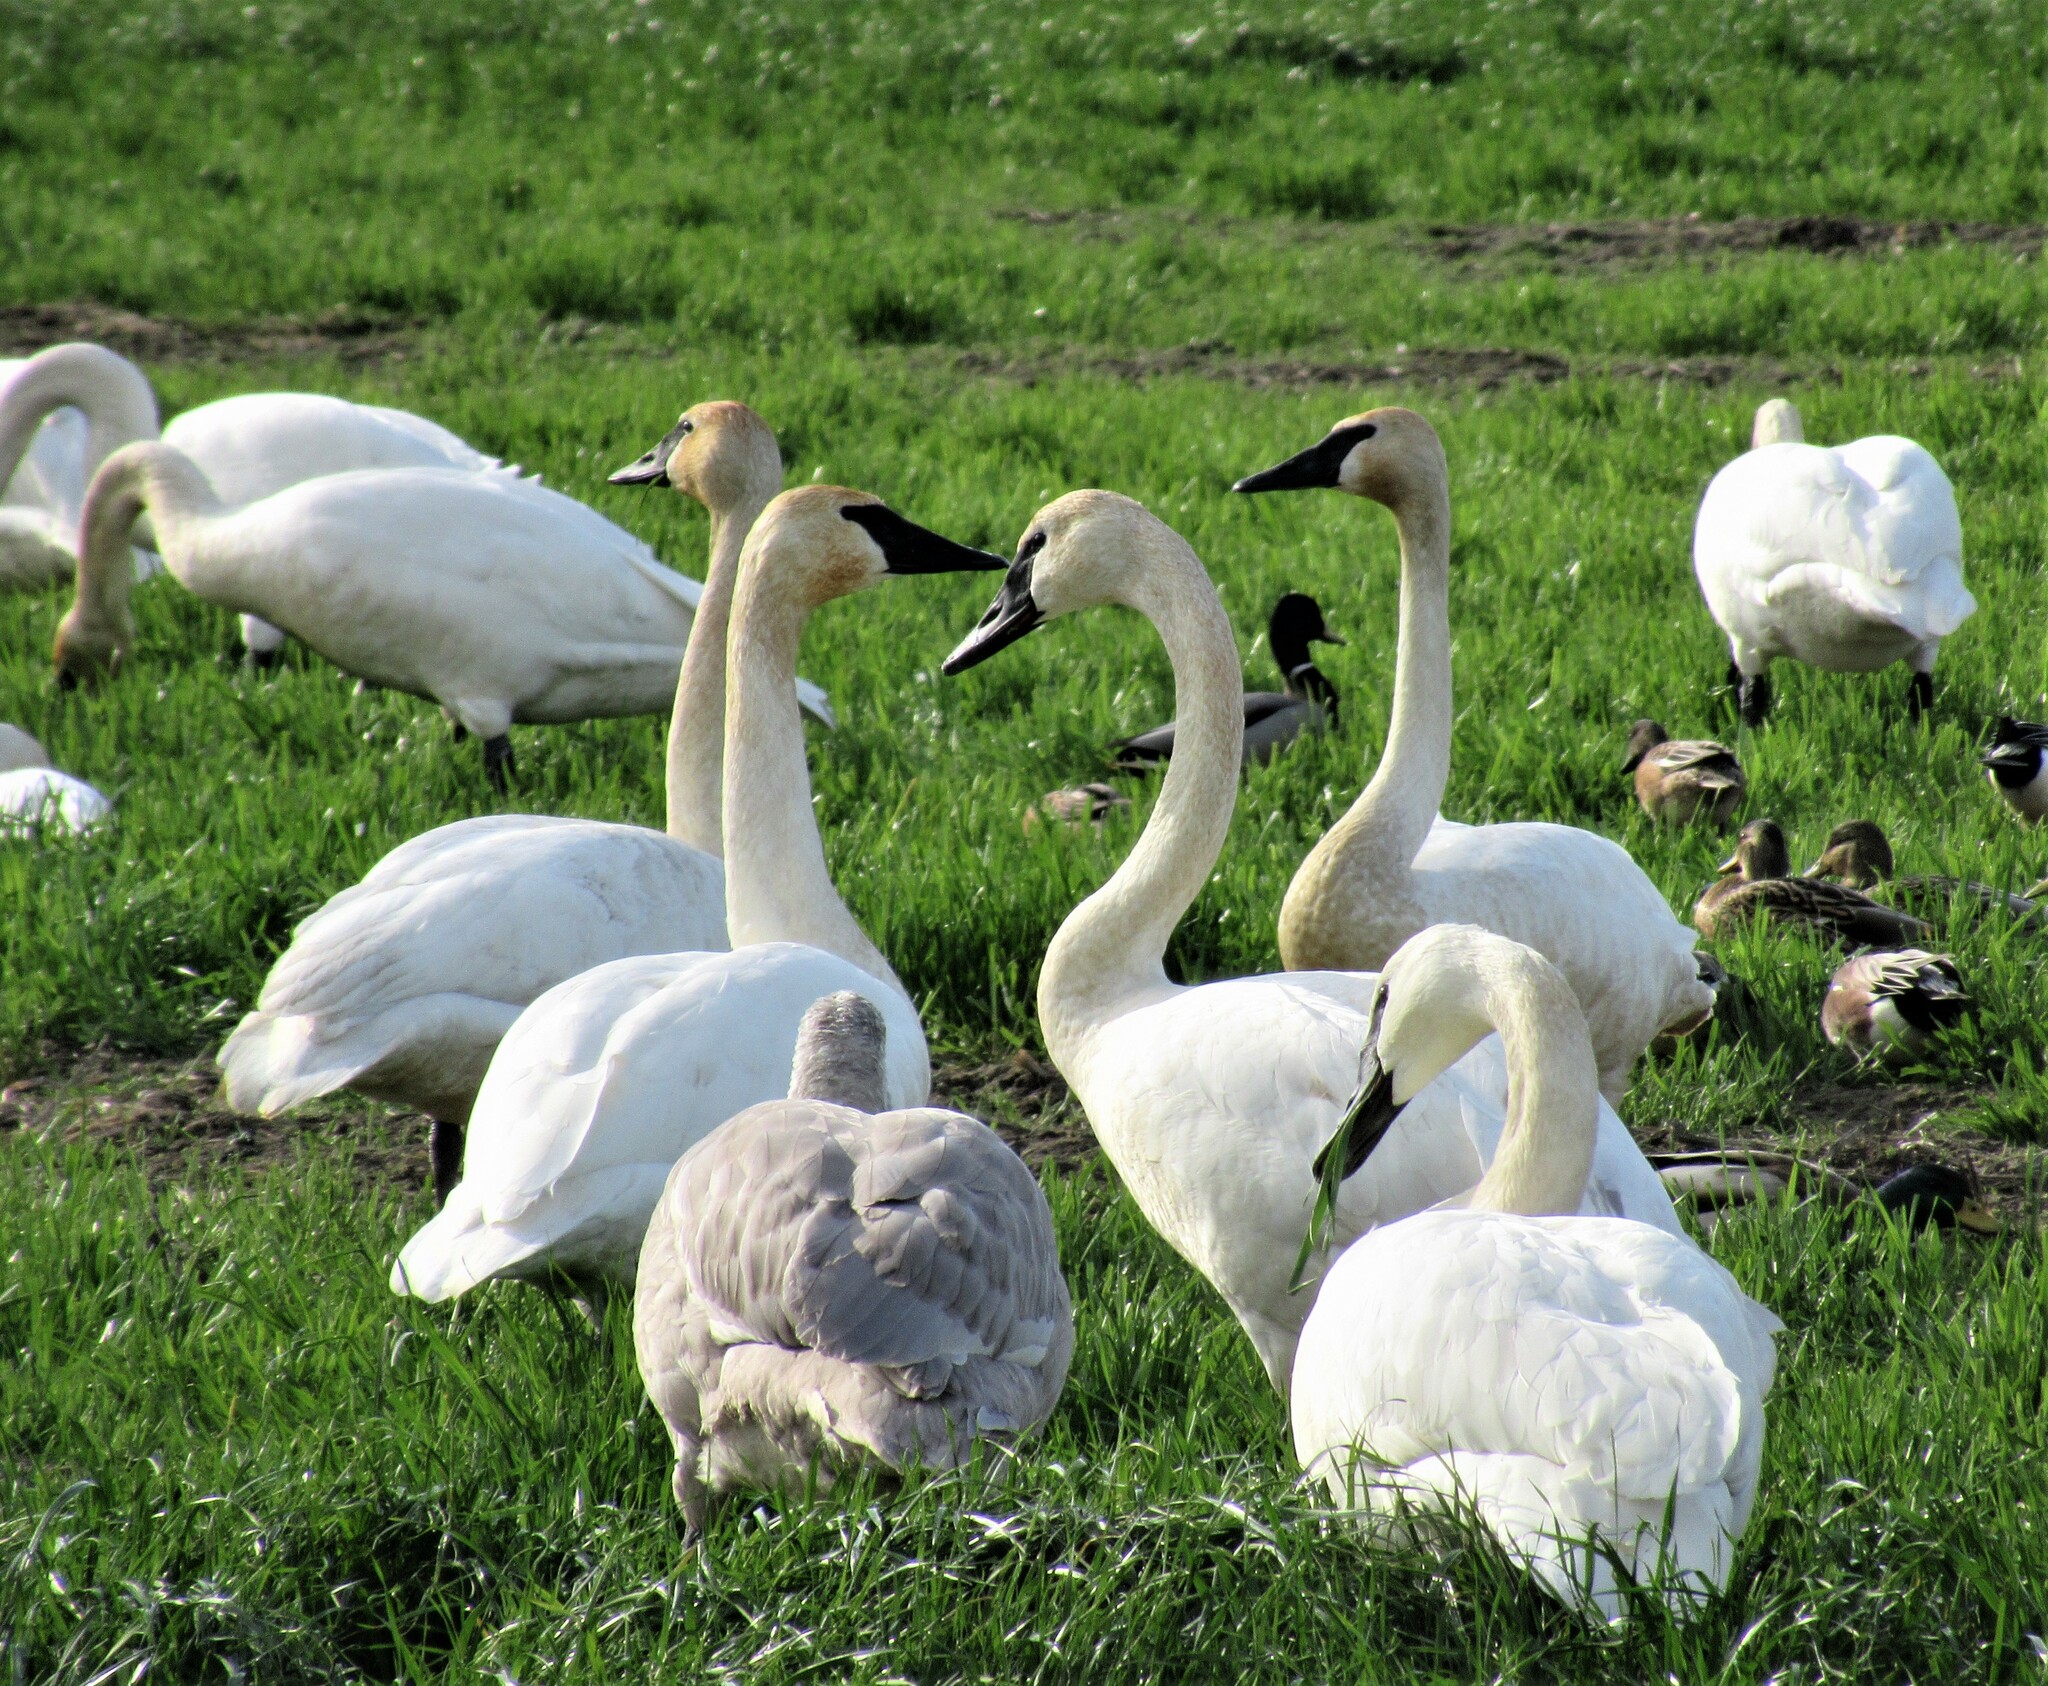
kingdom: Animalia
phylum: Chordata
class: Aves
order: Anseriformes
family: Anatidae
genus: Cygnus
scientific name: Cygnus buccinator
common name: Trumpeter swan
